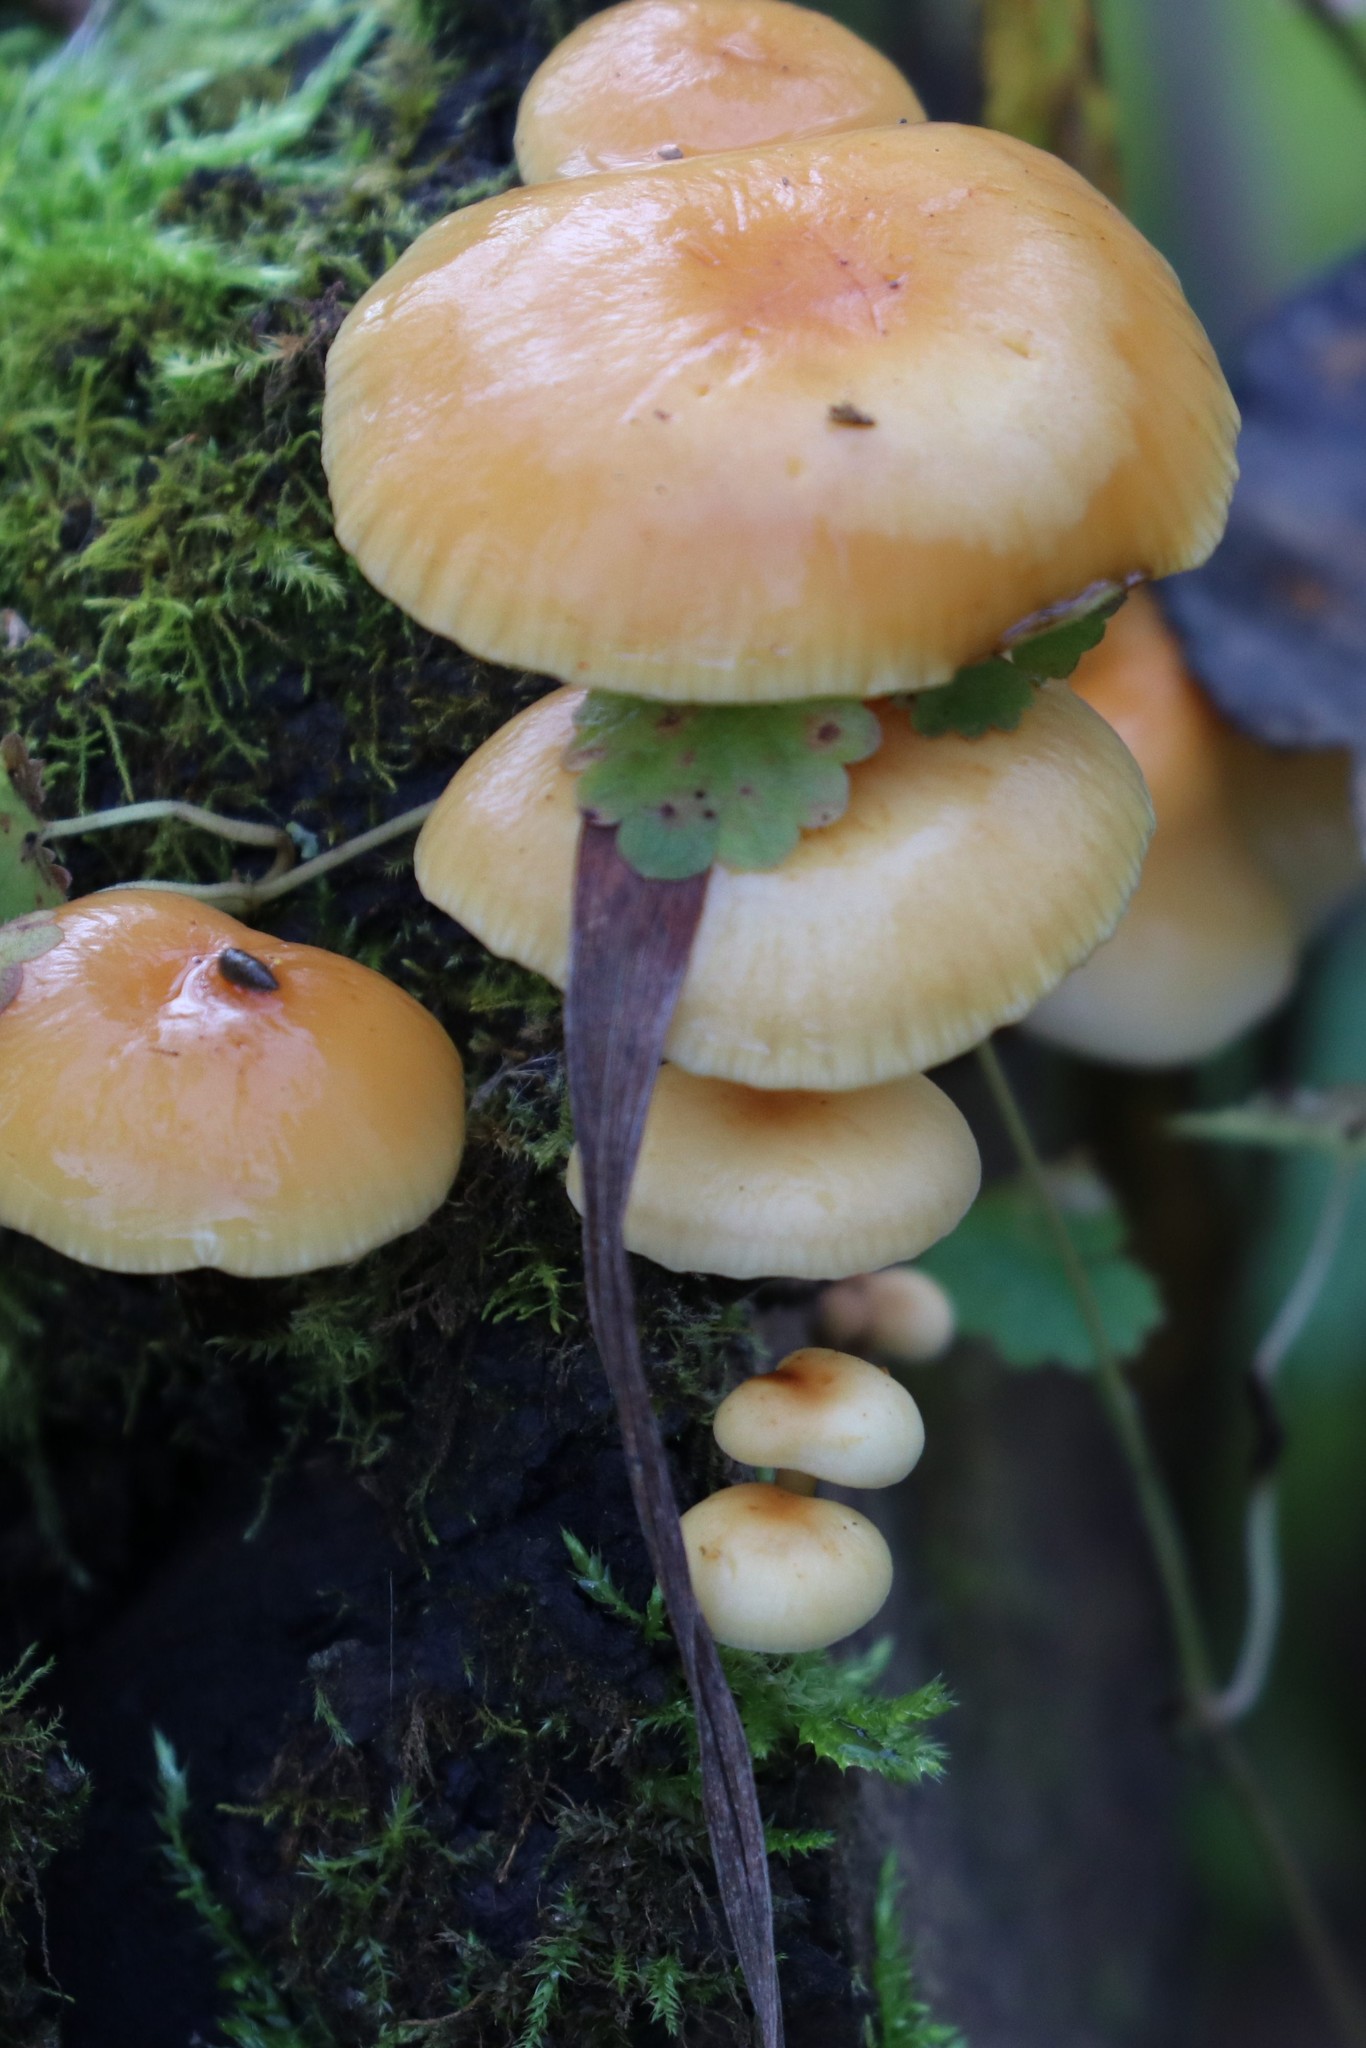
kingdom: Fungi
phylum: Basidiomycota
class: Agaricomycetes
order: Agaricales
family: Physalacriaceae
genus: Flammulina
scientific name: Flammulina
